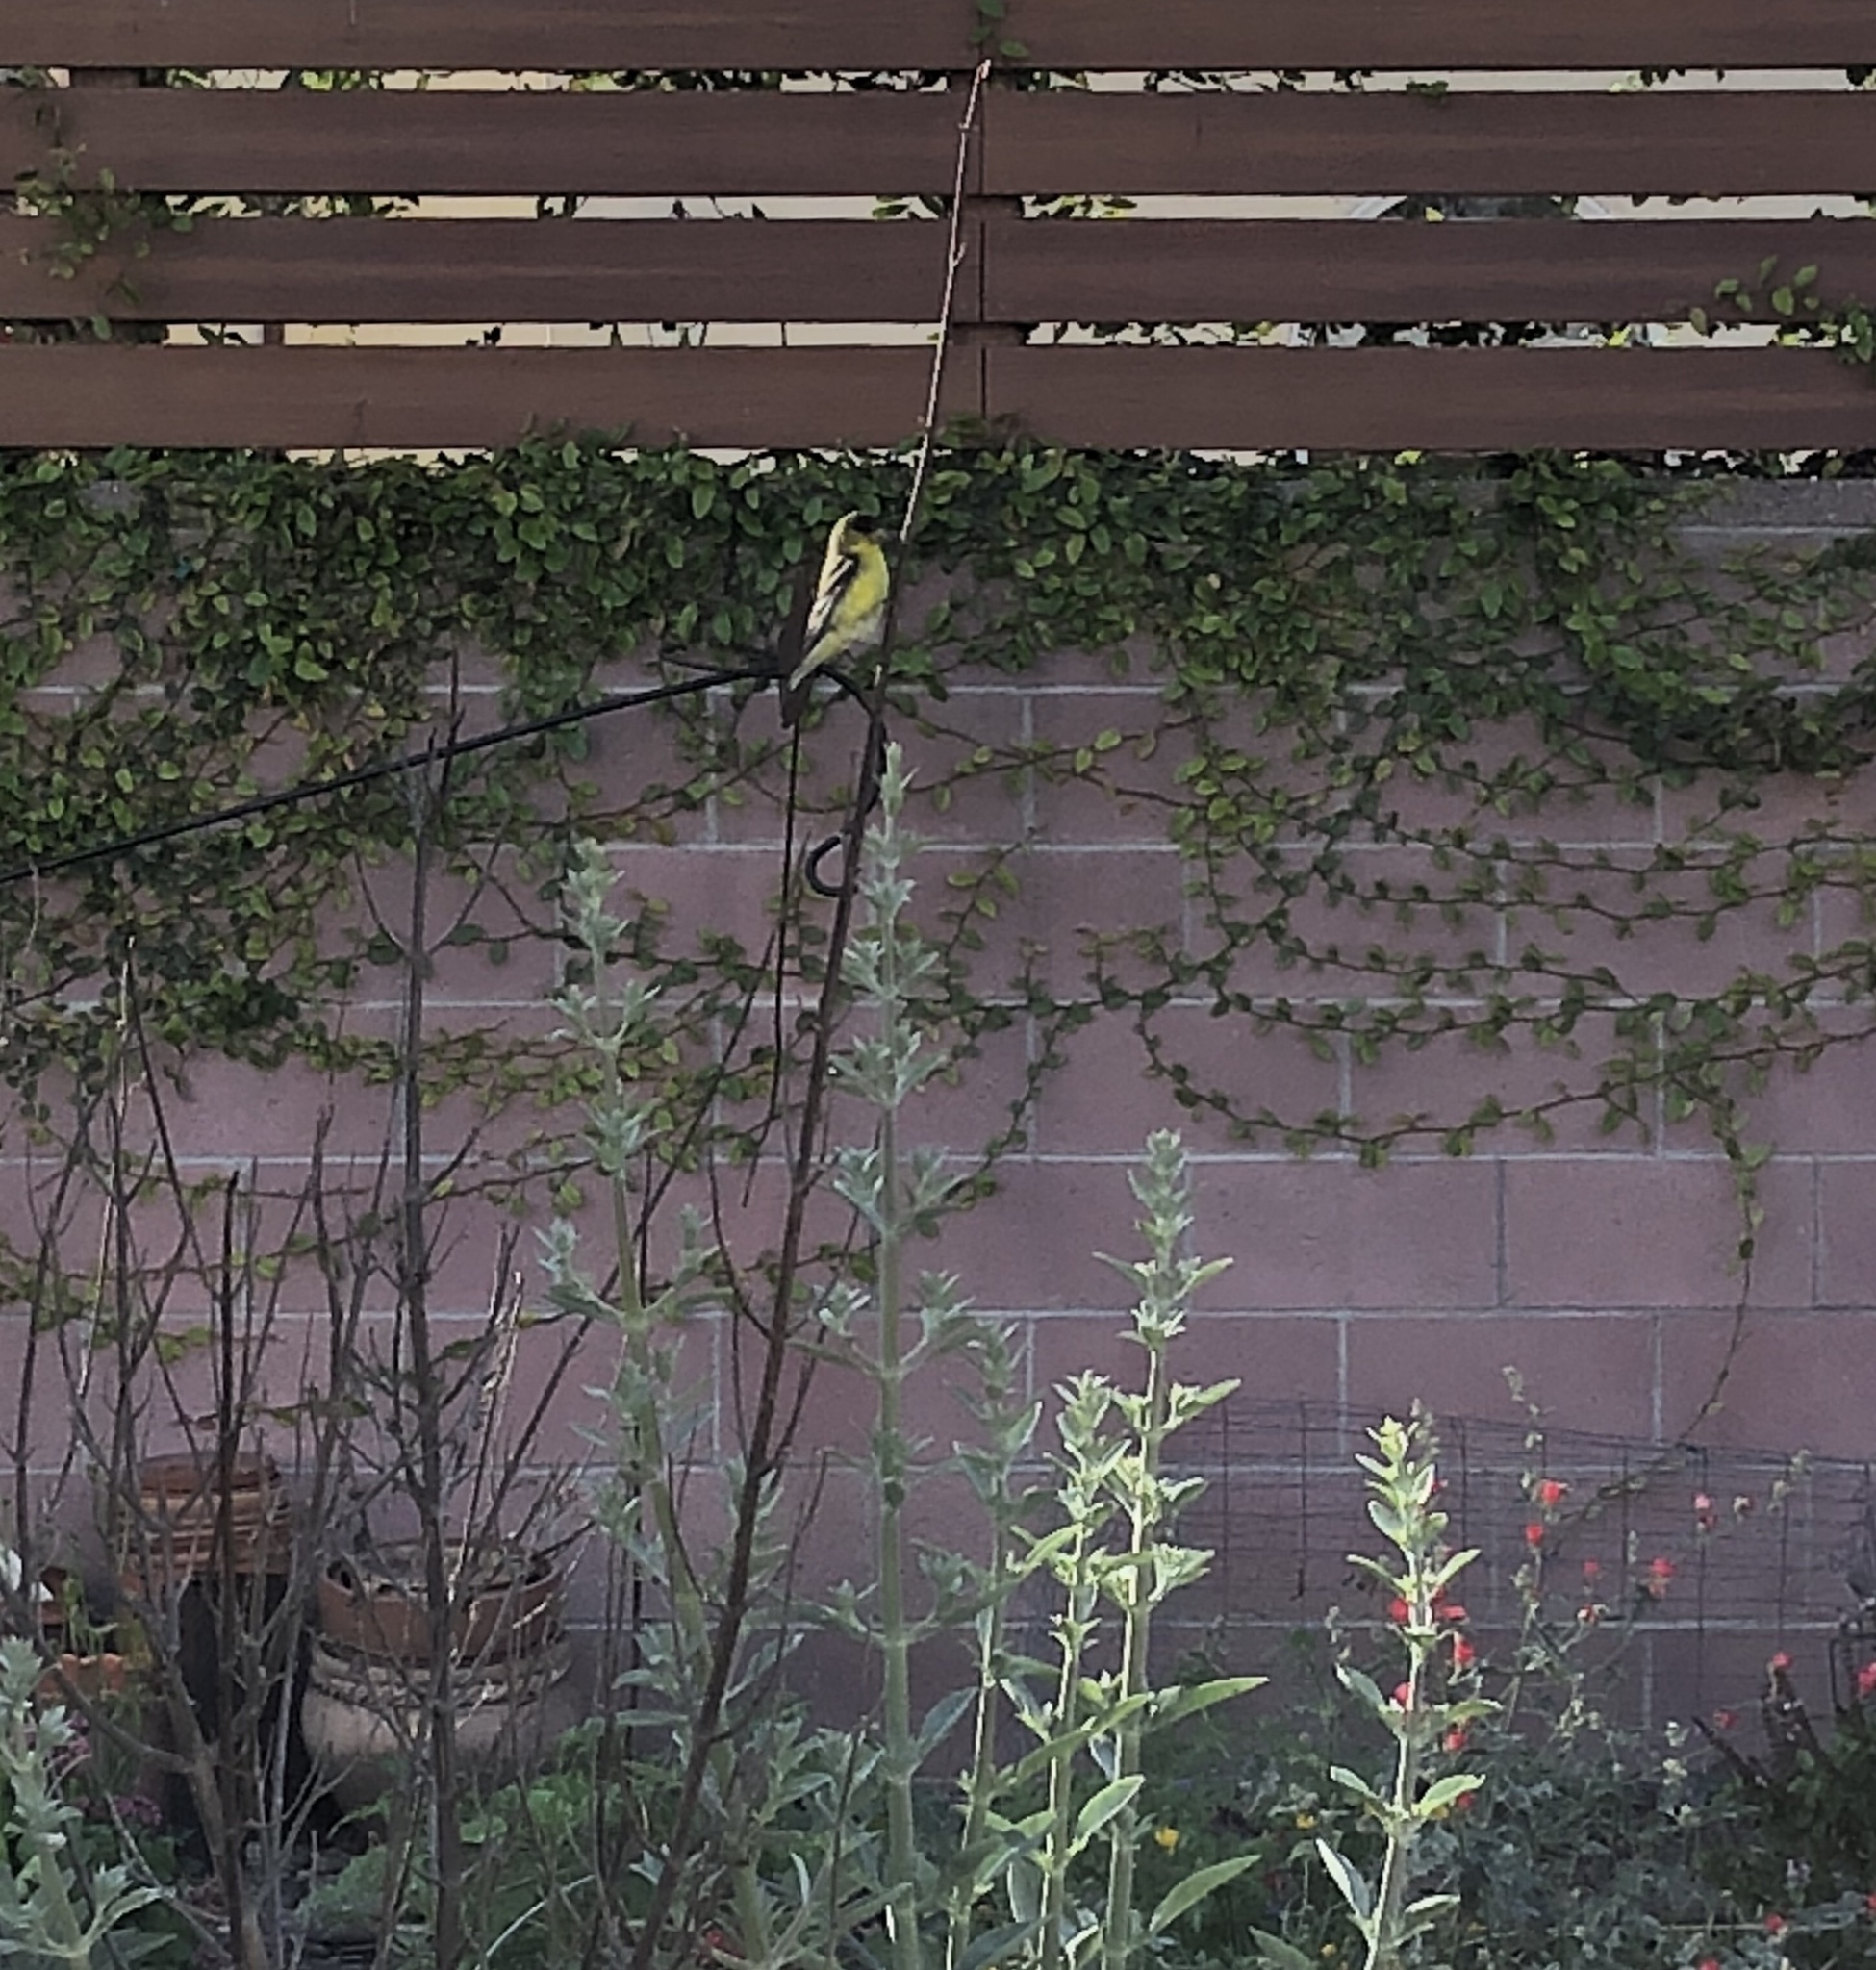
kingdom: Animalia
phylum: Chordata
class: Aves
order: Passeriformes
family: Fringillidae
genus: Spinus
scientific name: Spinus psaltria
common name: Lesser goldfinch
